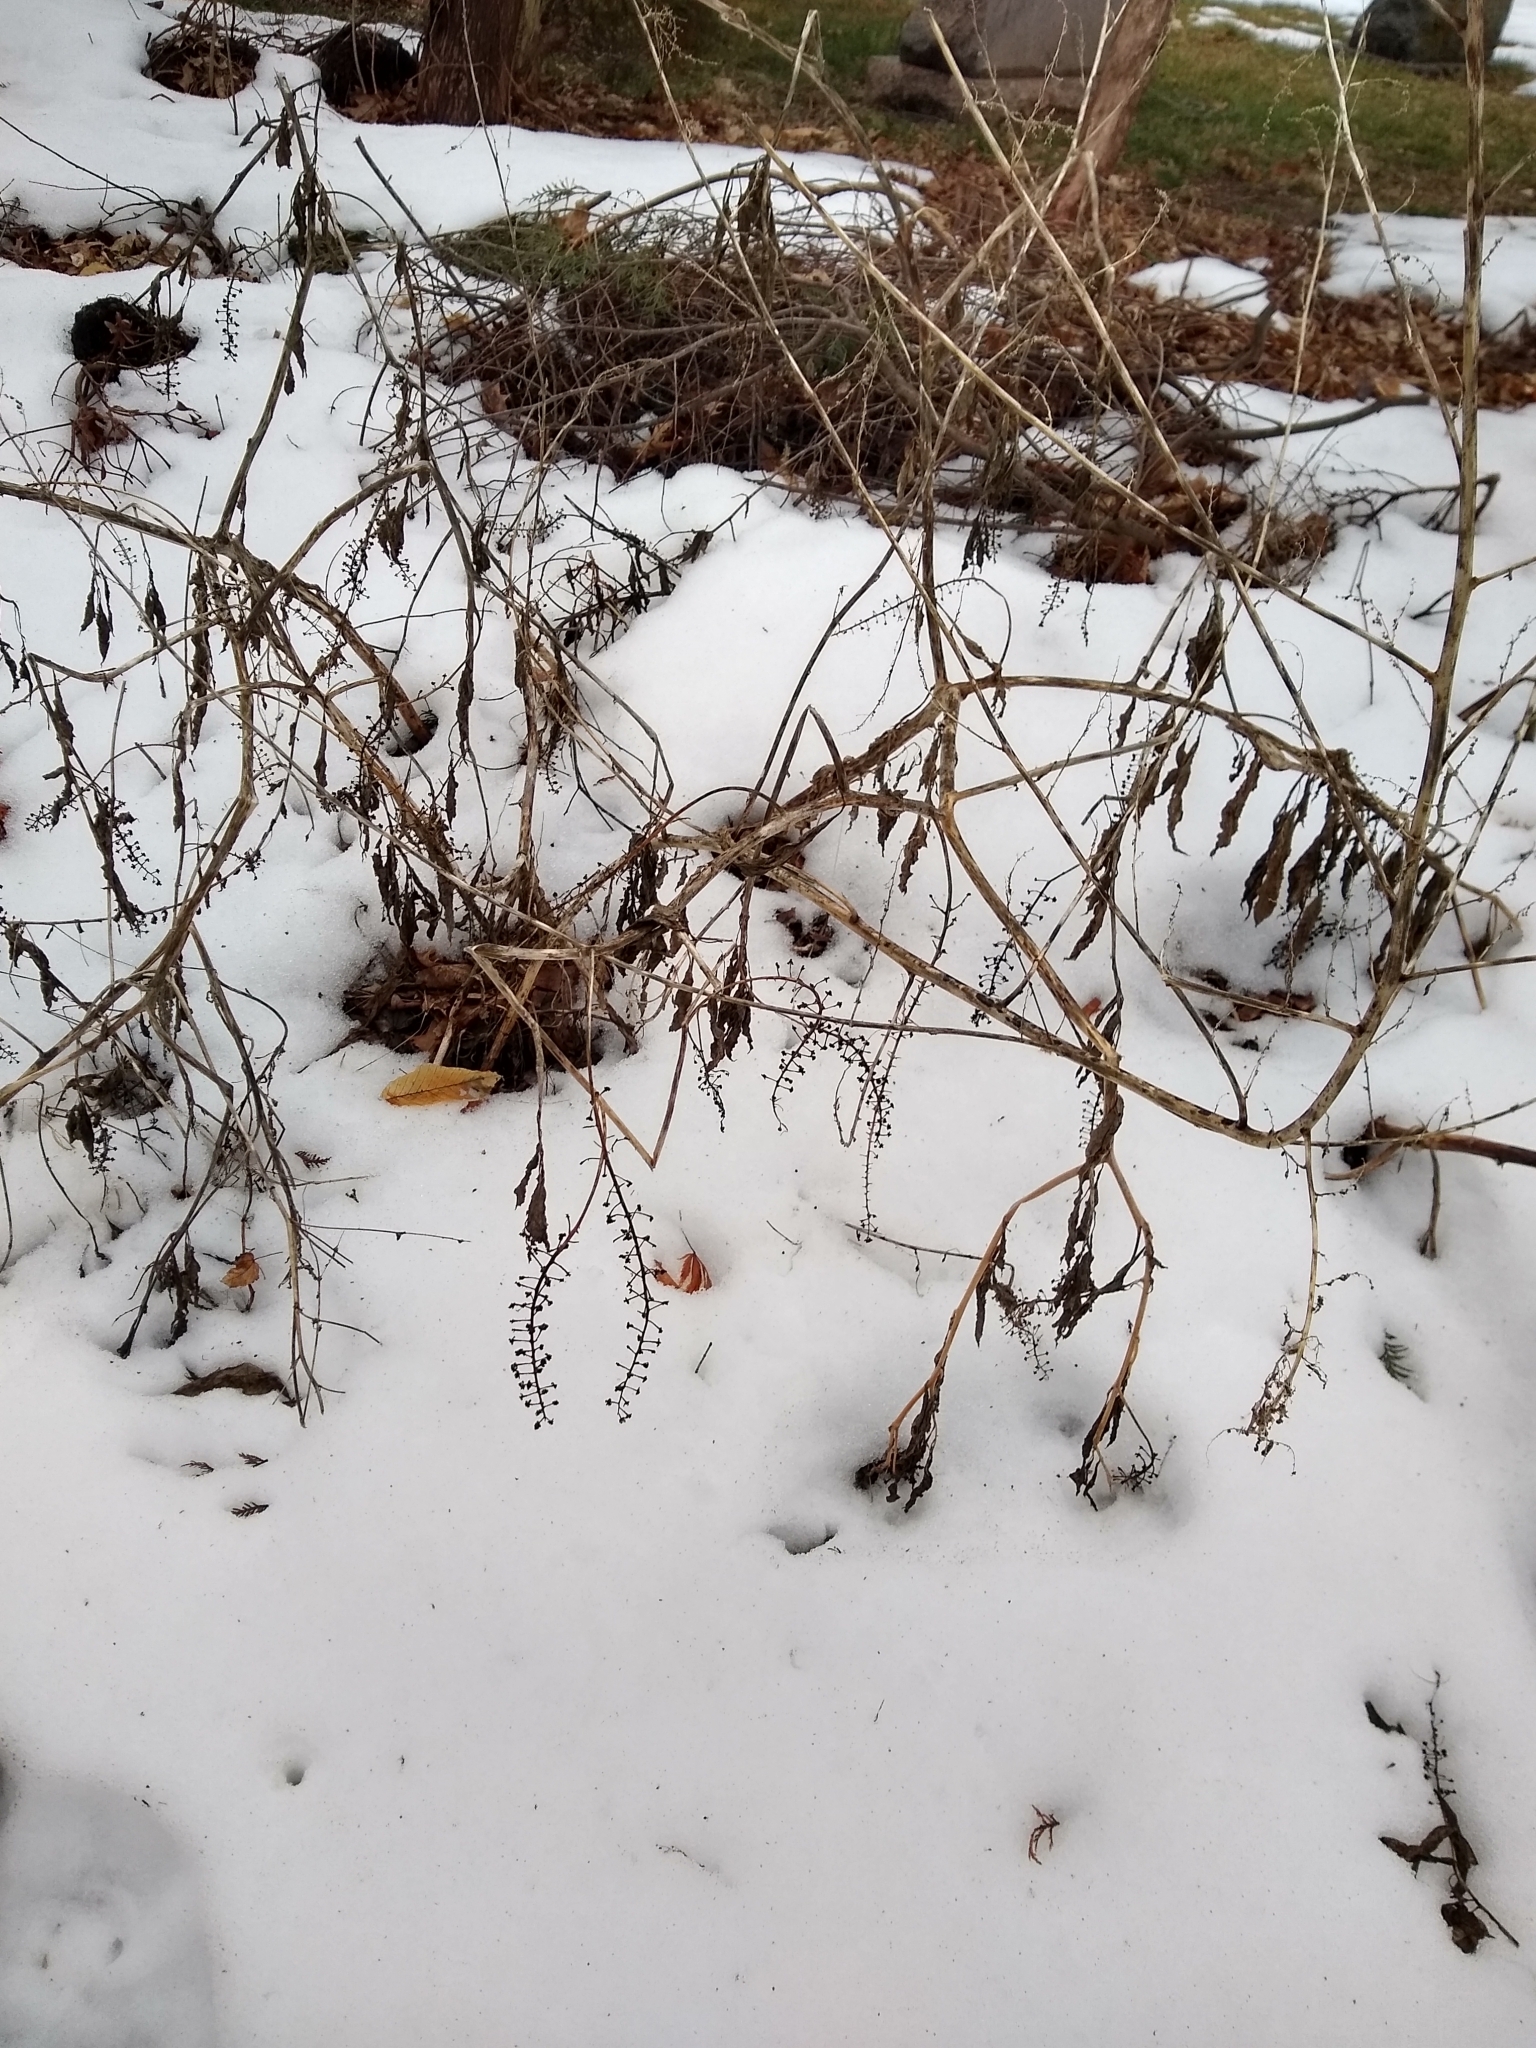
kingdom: Plantae
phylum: Tracheophyta
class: Magnoliopsida
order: Caryophyllales
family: Phytolaccaceae
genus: Phytolacca
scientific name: Phytolacca americana
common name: American pokeweed
